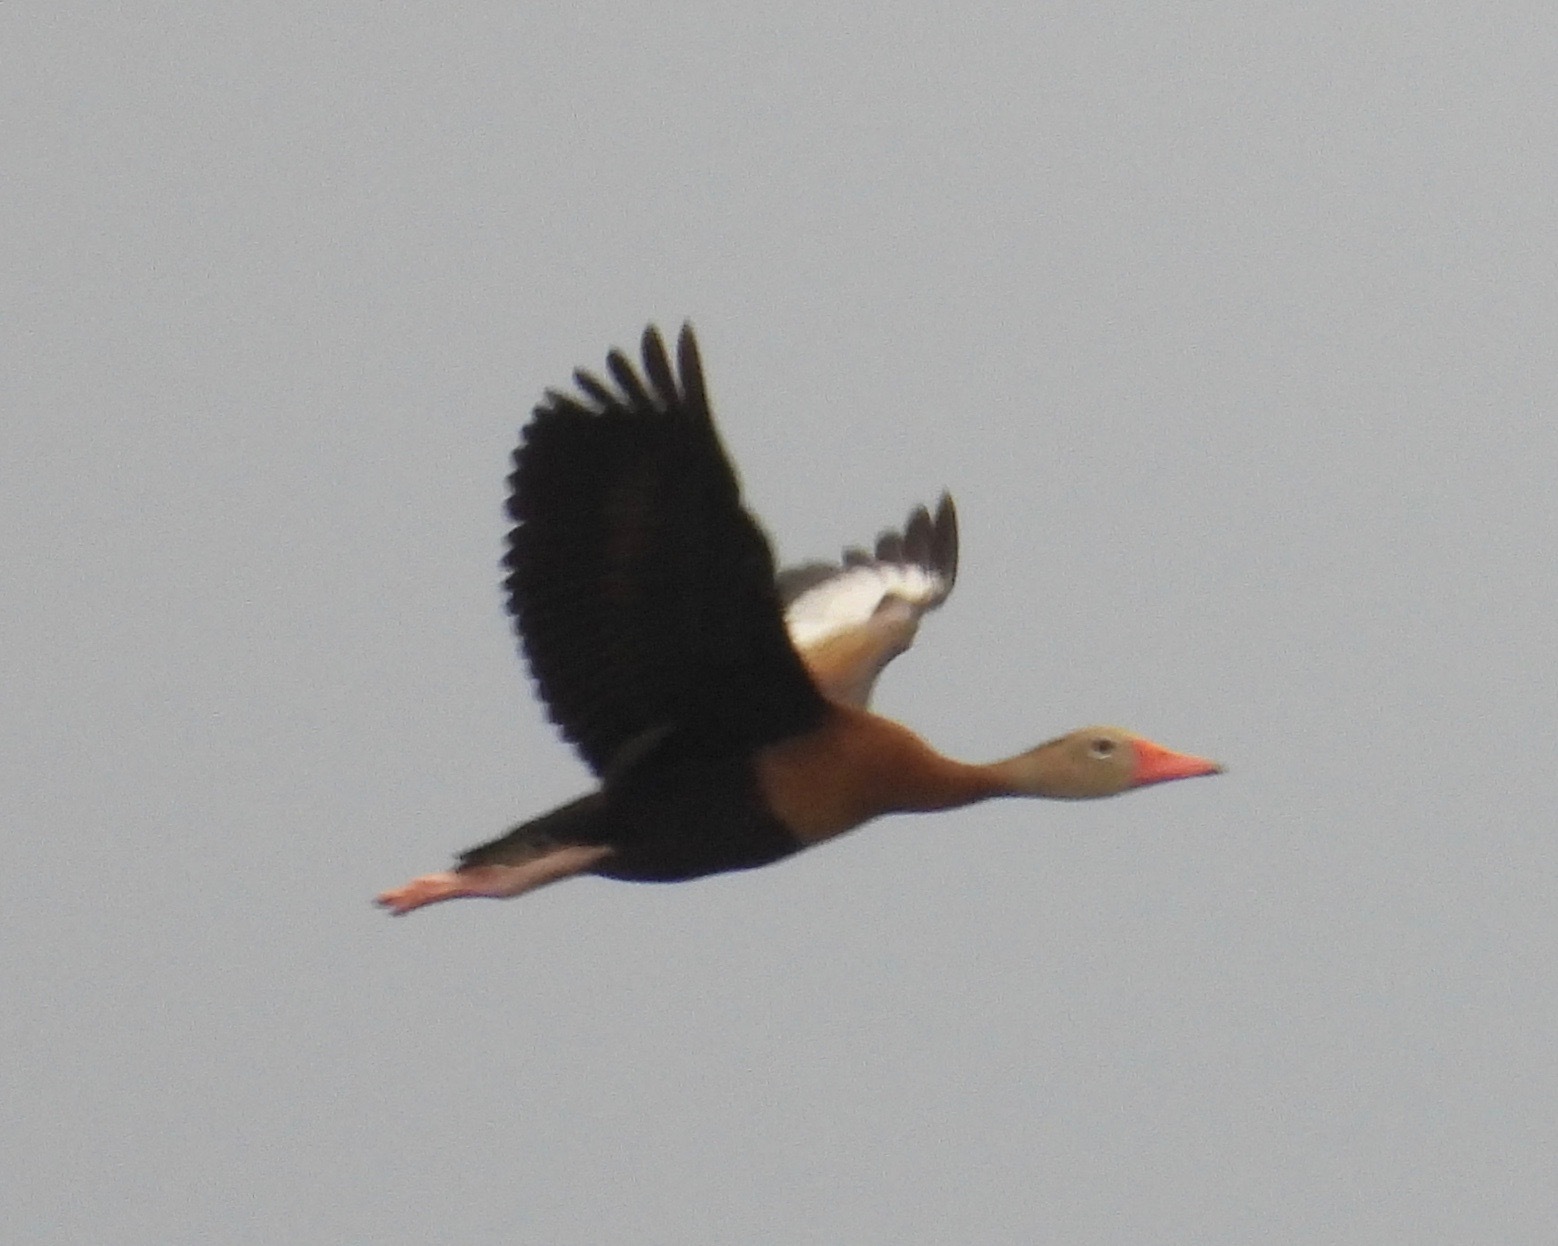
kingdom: Animalia
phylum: Chordata
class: Aves
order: Anseriformes
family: Anatidae
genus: Dendrocygna
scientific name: Dendrocygna autumnalis
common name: Black-bellied whistling duck
